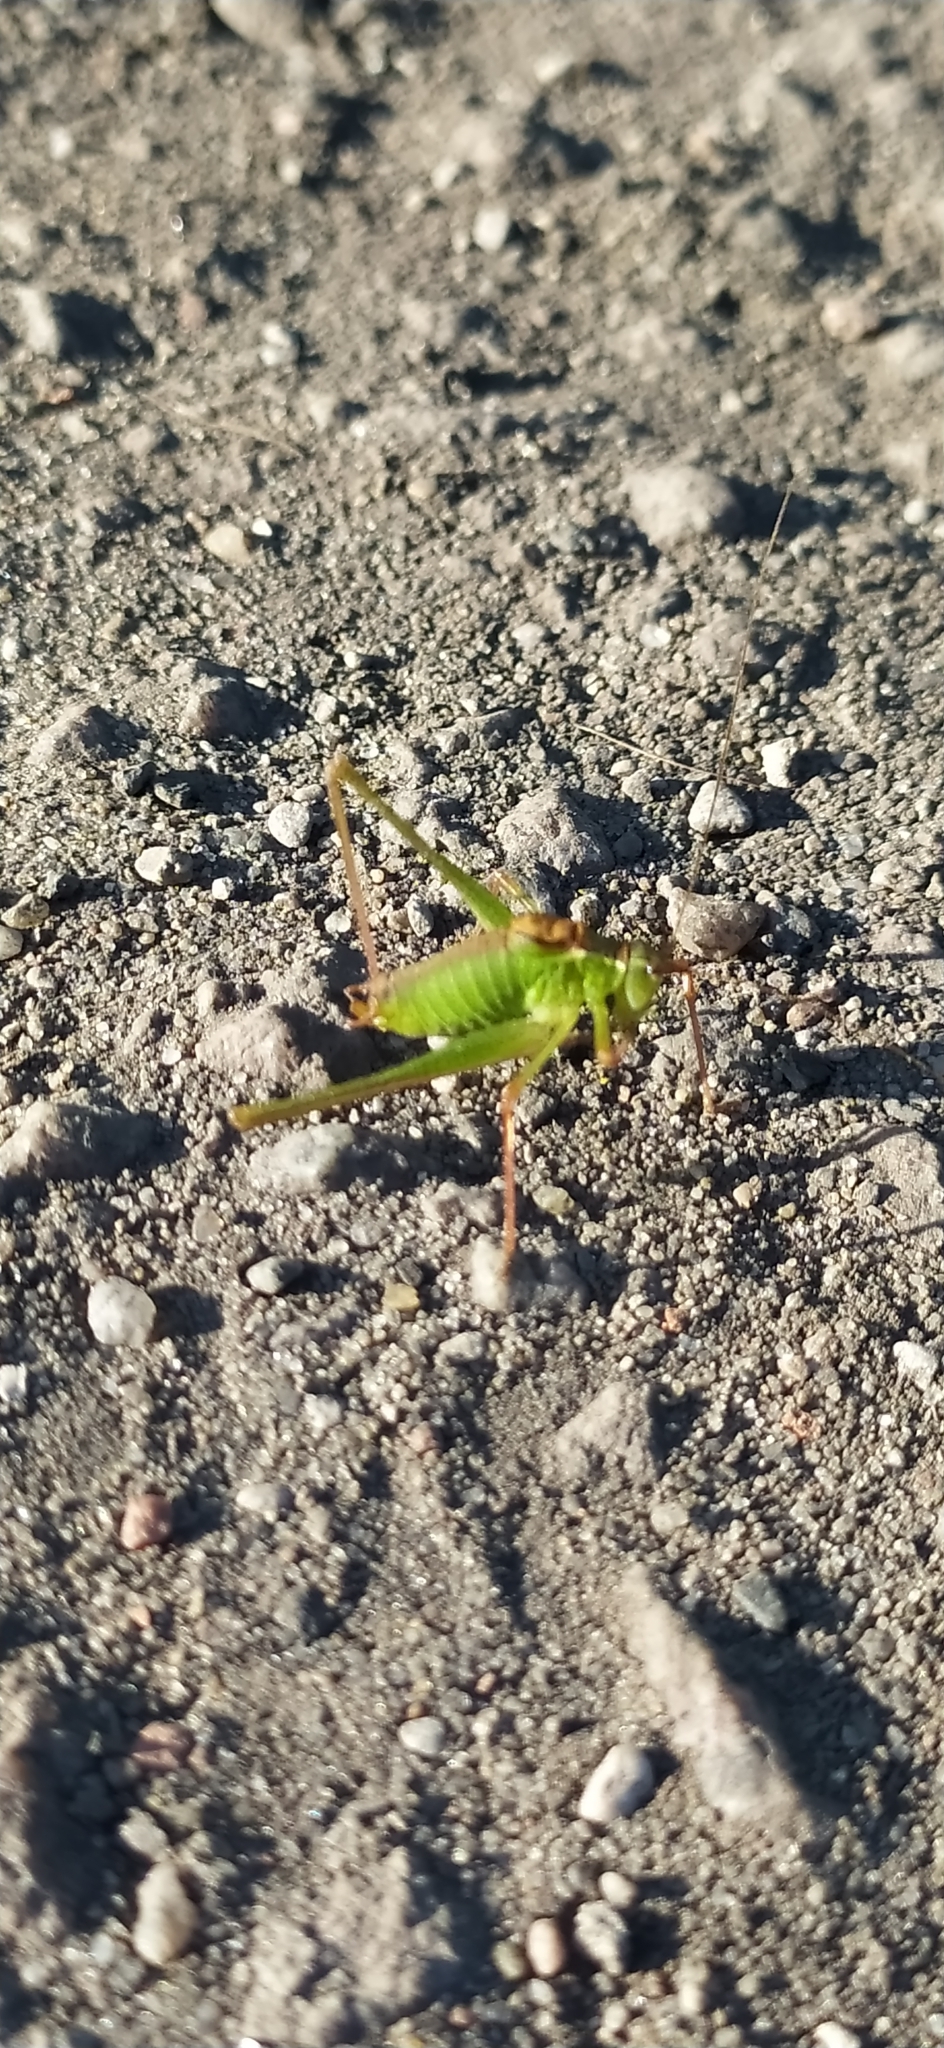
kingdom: Animalia
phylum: Arthropoda
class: Insecta
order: Orthoptera
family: Tettigoniidae
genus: Leptophyes
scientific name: Leptophyes punctatissima
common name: Speckled bush-cricket
